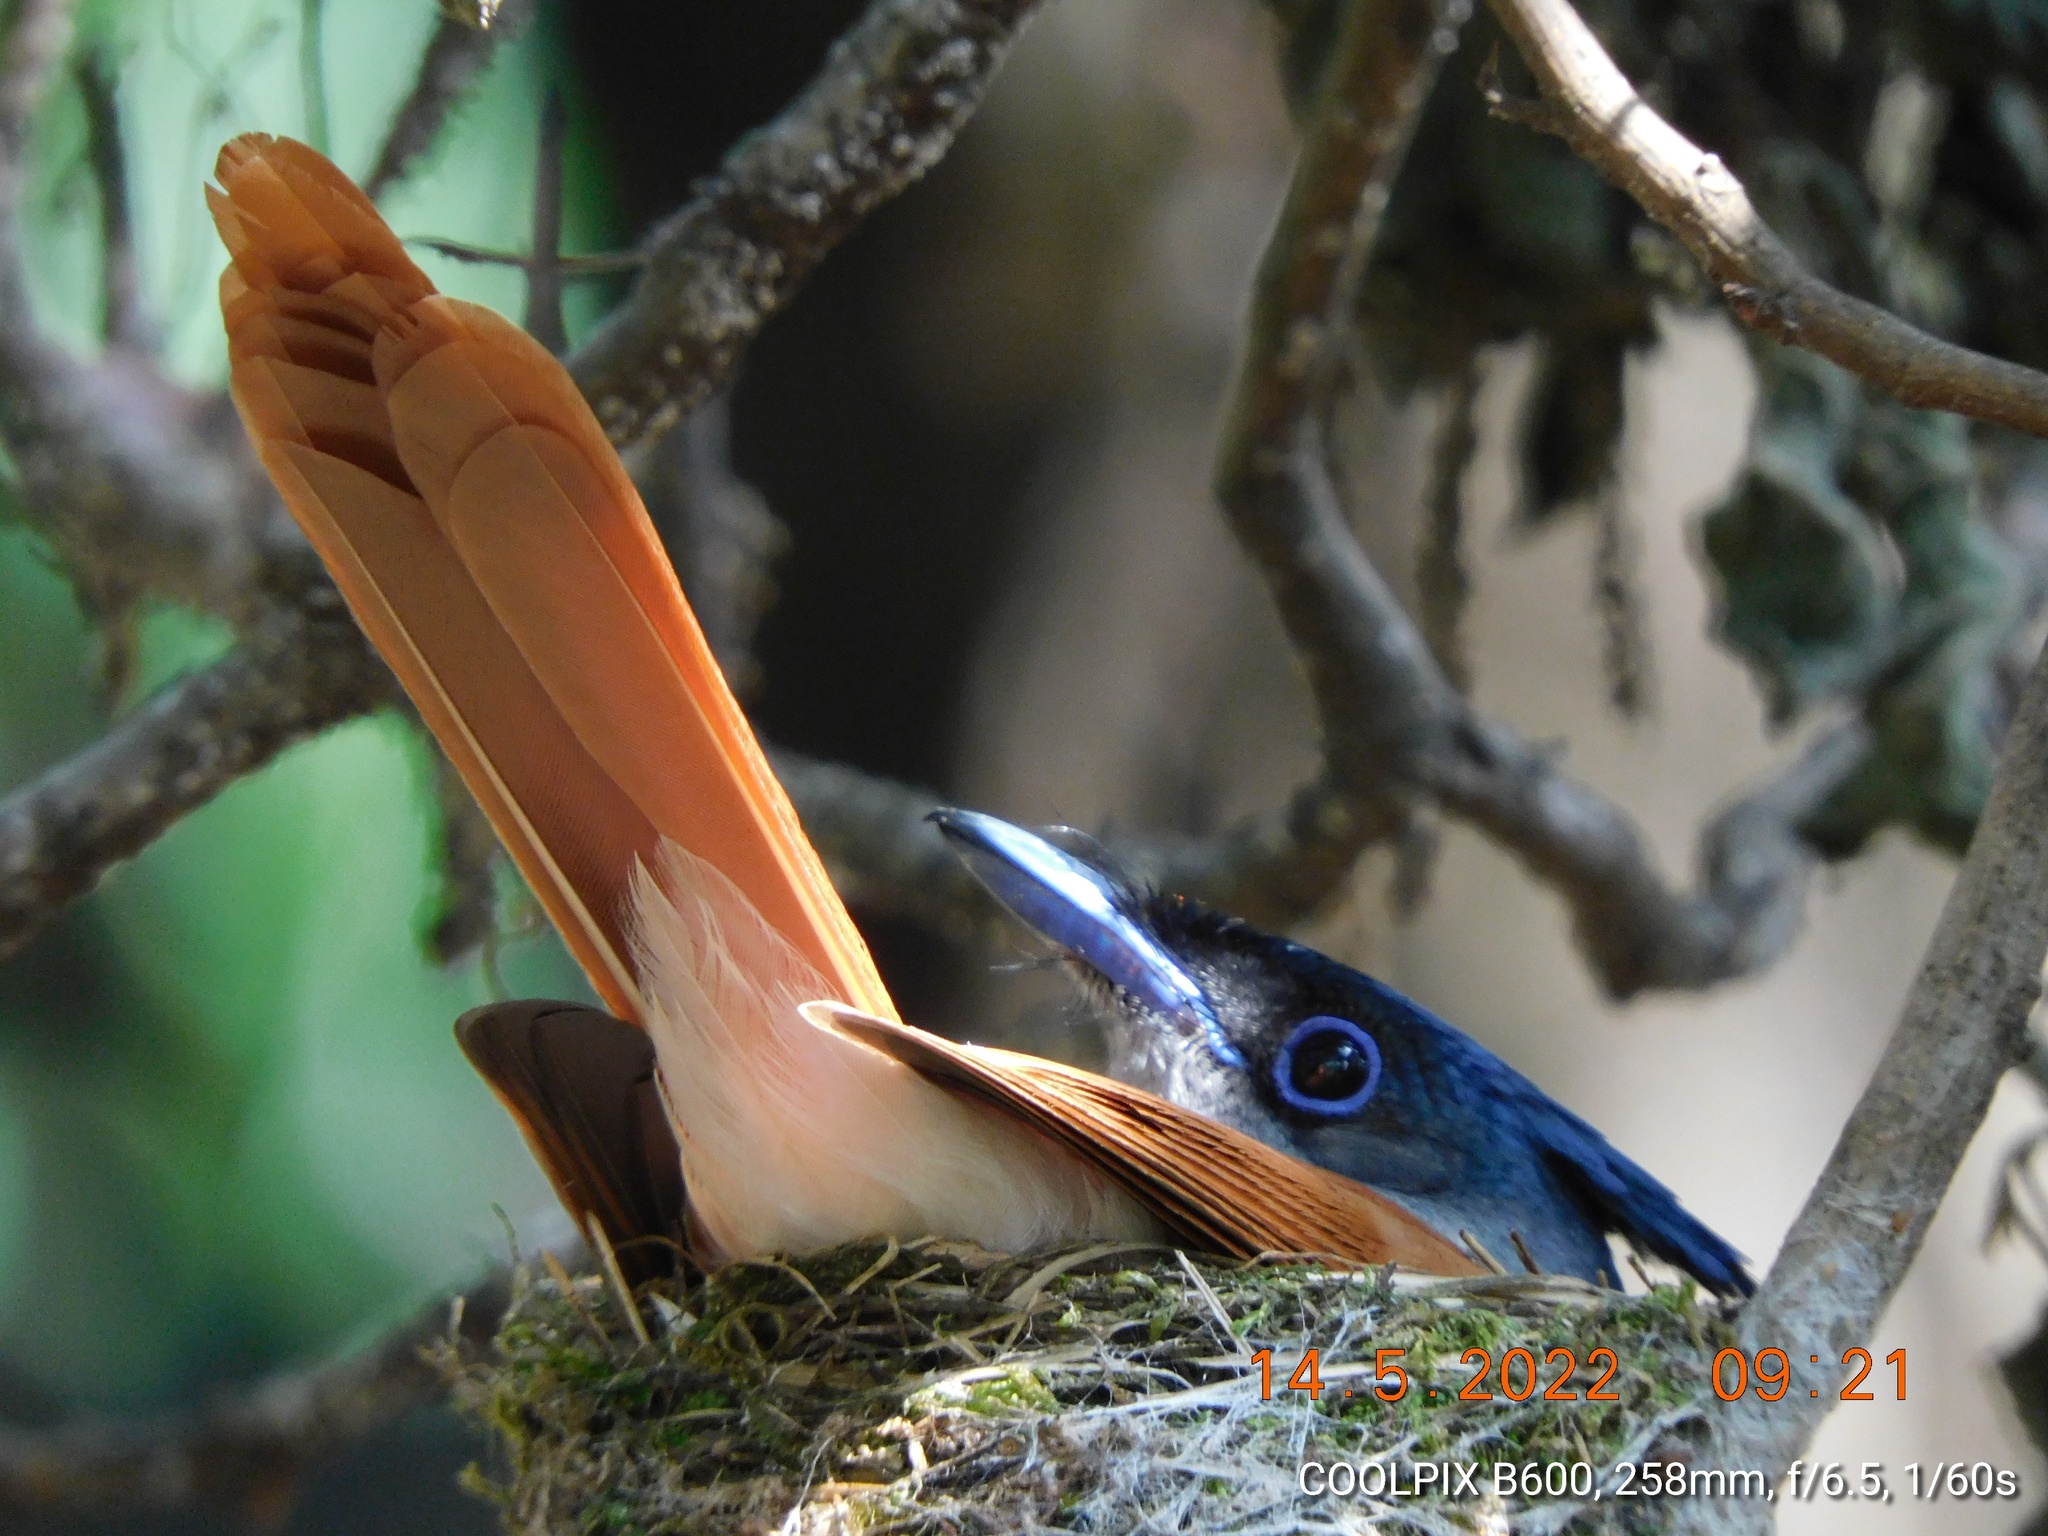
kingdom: Animalia
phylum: Chordata
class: Aves
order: Passeriformes
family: Monarchidae
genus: Terpsiphone
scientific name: Terpsiphone paradisi
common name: Indian paradise flycatcher
